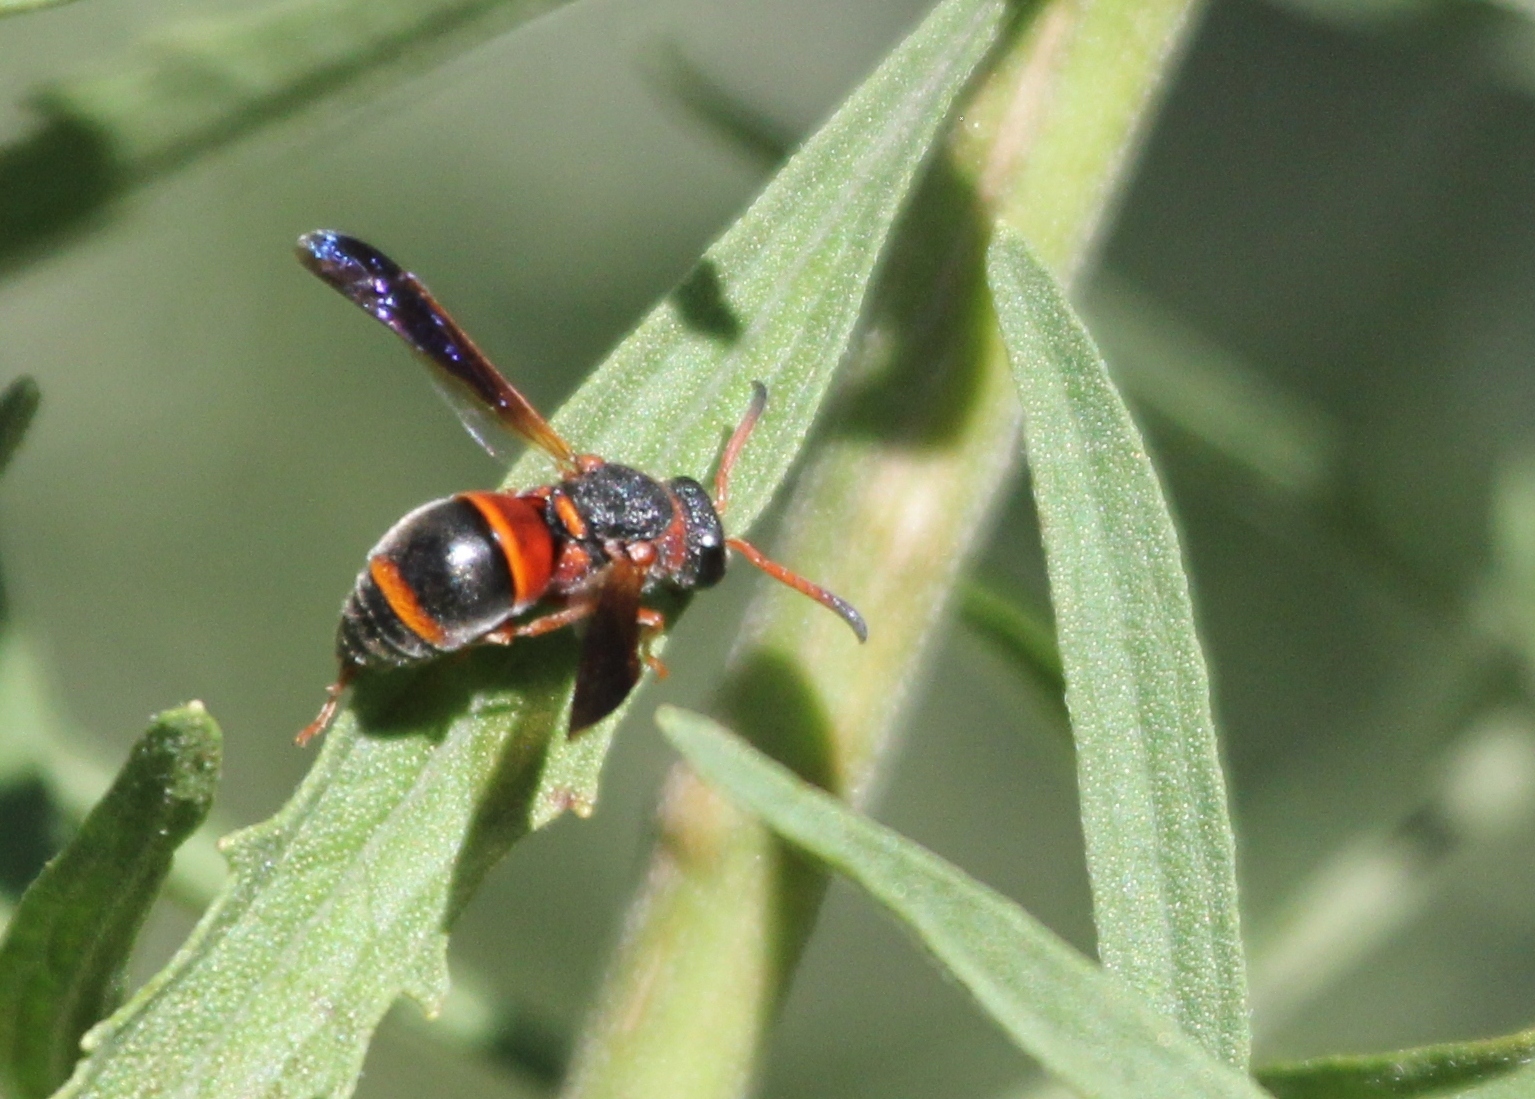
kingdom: Animalia
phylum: Arthropoda
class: Insecta
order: Hymenoptera
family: Eumenidae
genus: Pachodynerus
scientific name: Pachodynerus erynnis
